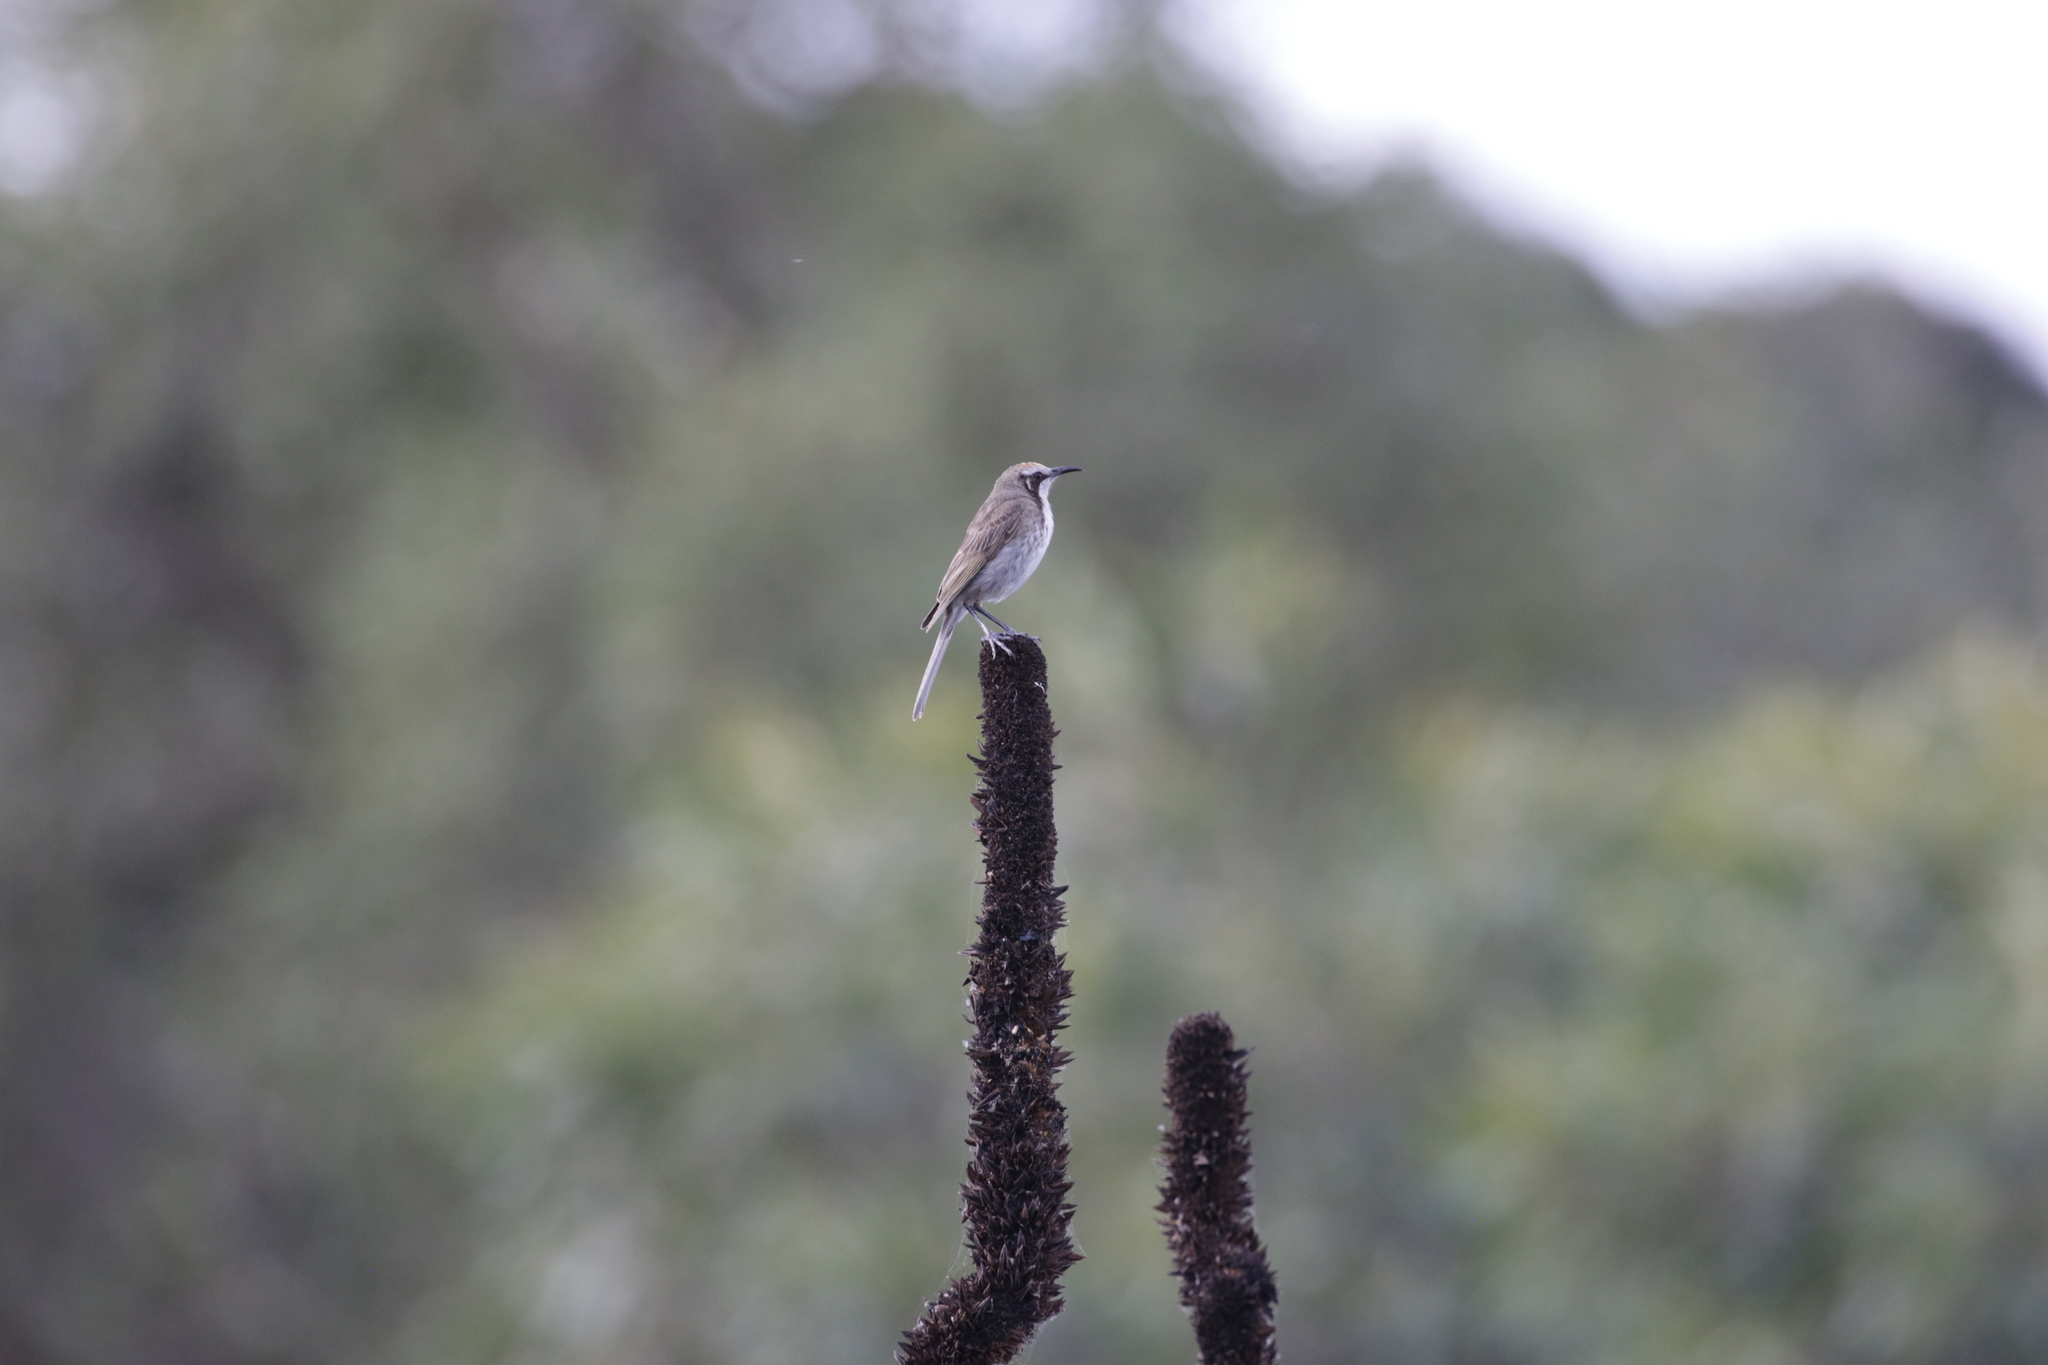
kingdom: Animalia
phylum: Chordata
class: Aves
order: Passeriformes
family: Meliphagidae
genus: Gliciphila
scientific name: Gliciphila melanops
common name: Tawny-crowned honeyeater
